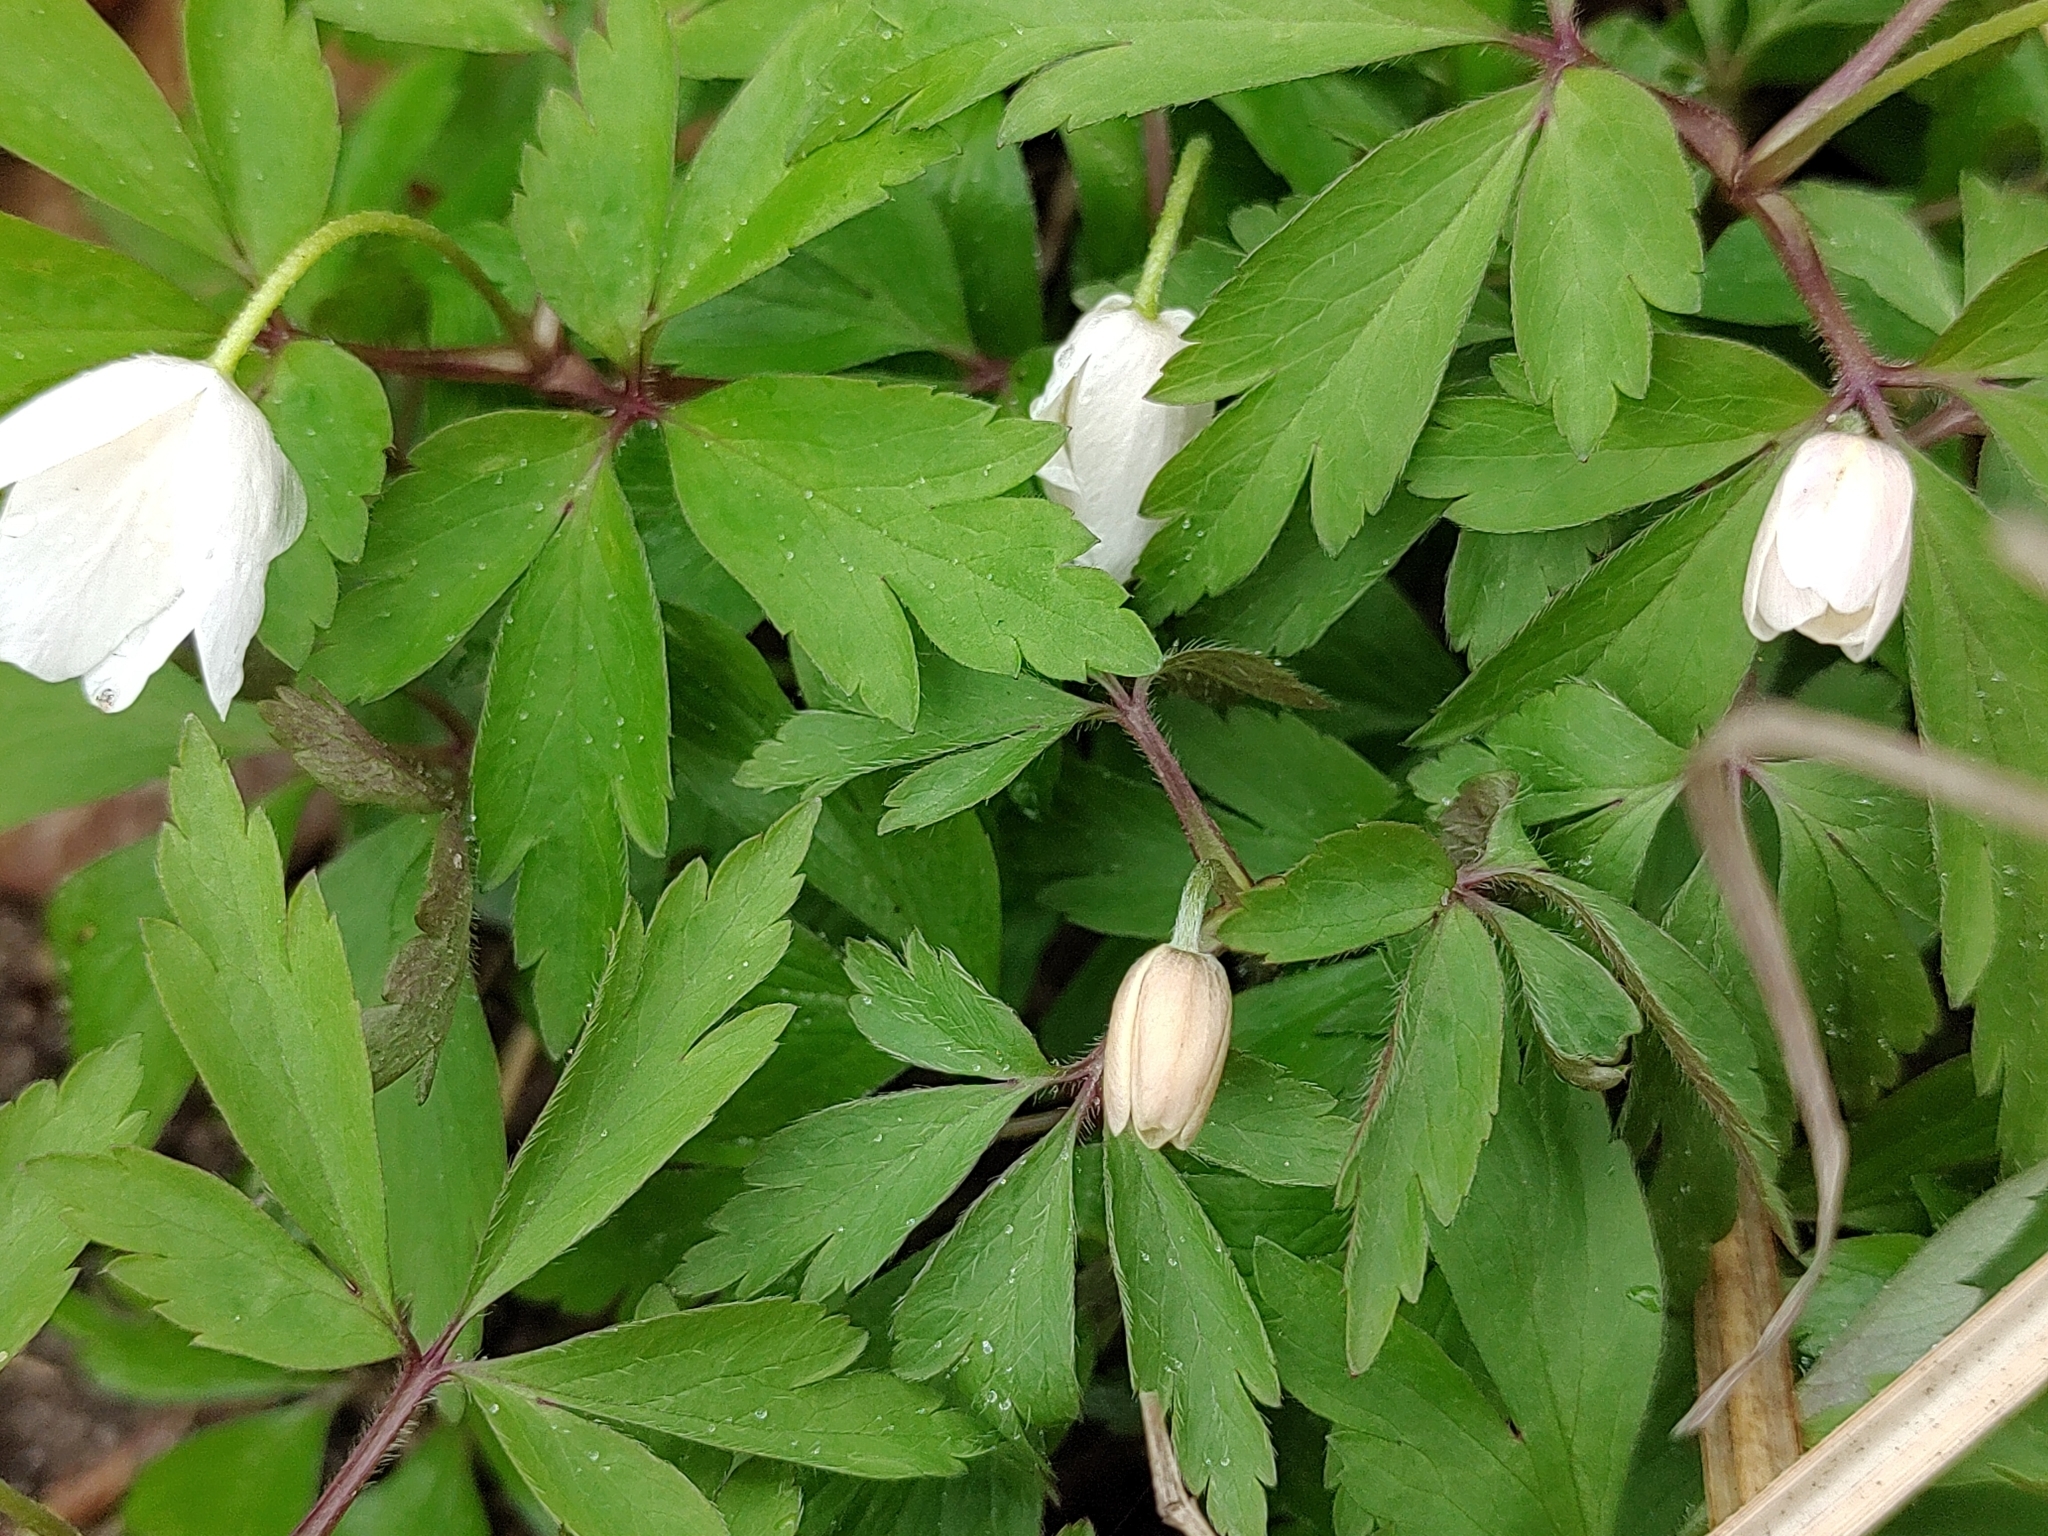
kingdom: Plantae
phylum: Tracheophyta
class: Magnoliopsida
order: Ranunculales
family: Ranunculaceae
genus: Anemone
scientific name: Anemone nemorosa
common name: Wood anemone
